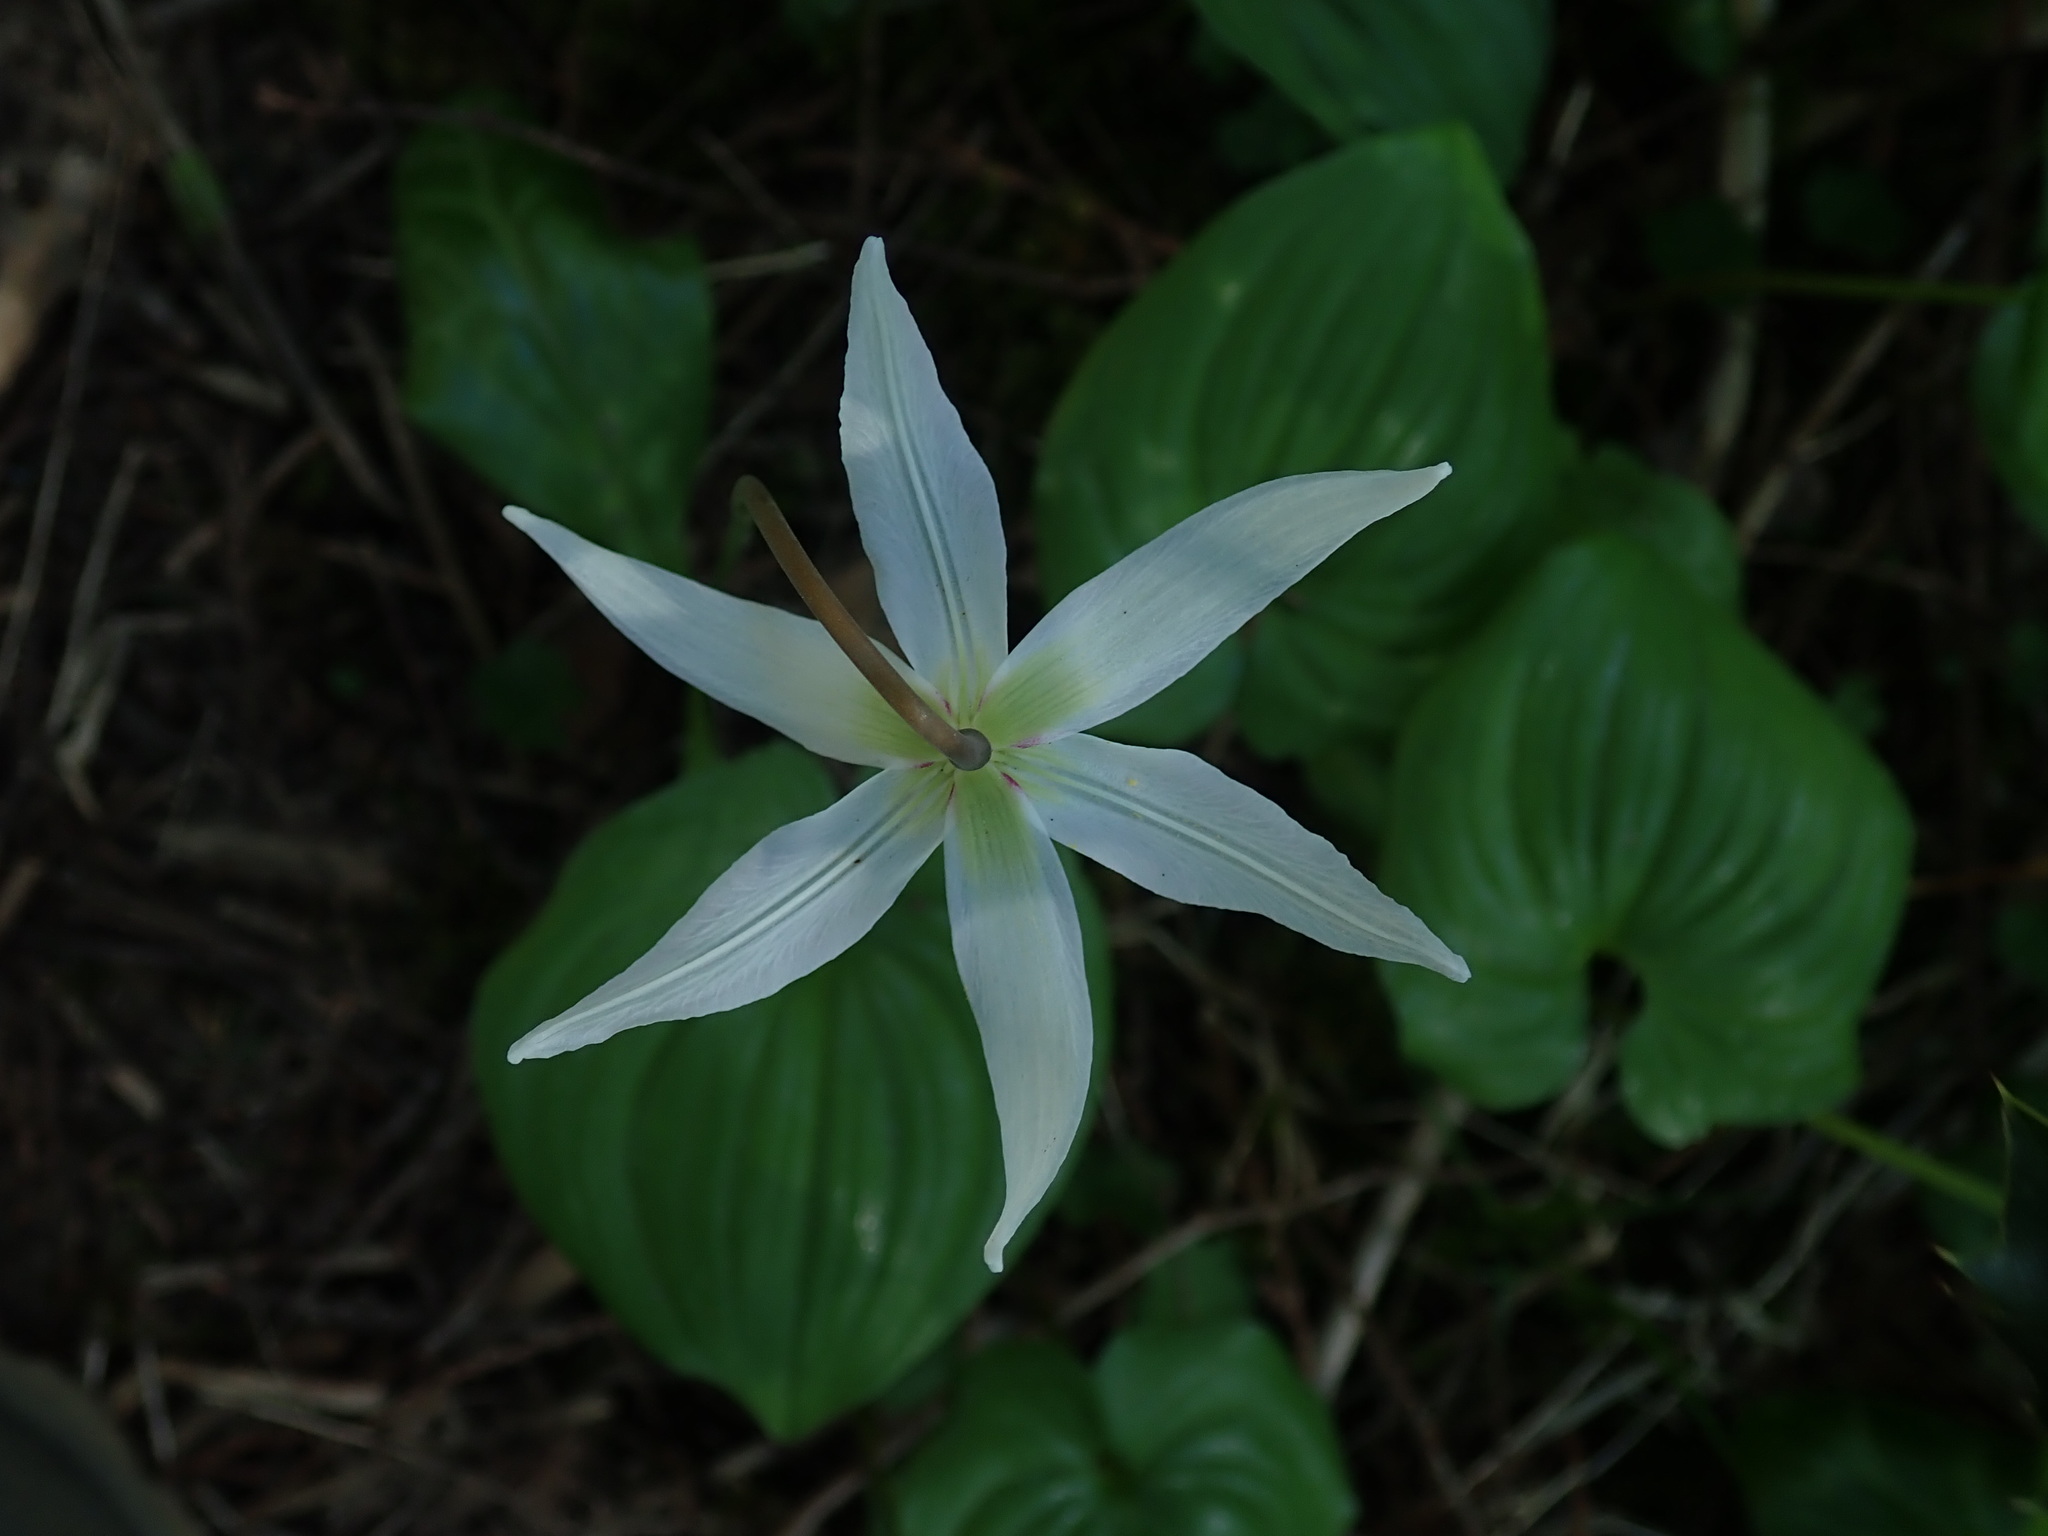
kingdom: Plantae
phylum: Tracheophyta
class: Liliopsida
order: Liliales
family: Liliaceae
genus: Erythronium
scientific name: Erythronium oregonum
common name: Giant adder's-tongue
